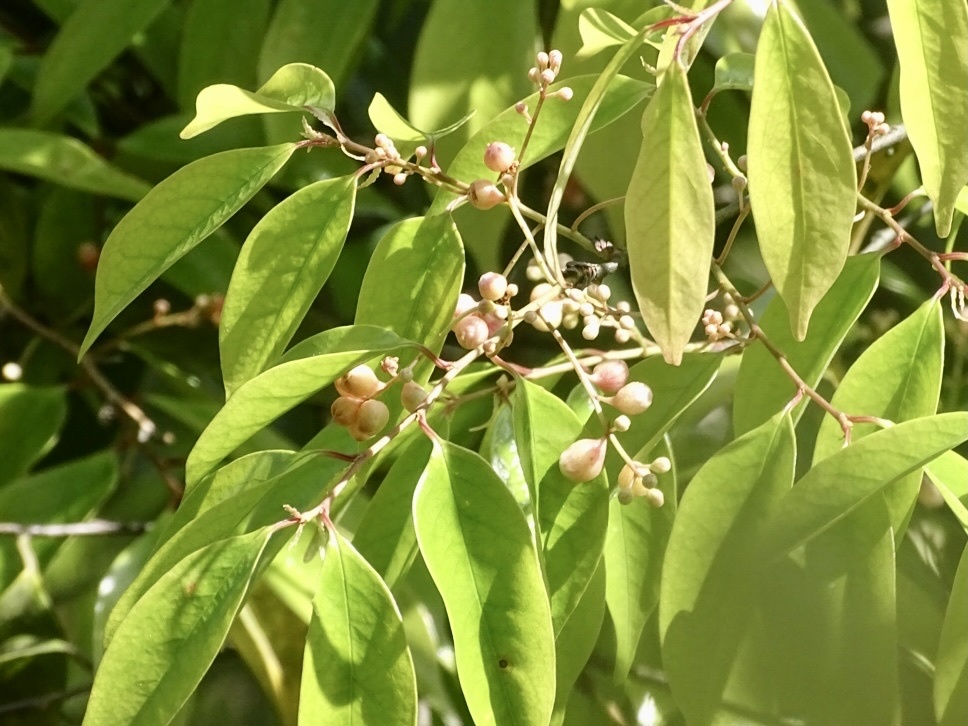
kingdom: Plantae
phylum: Tracheophyta
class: Magnoliopsida
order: Rosales
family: Rosaceae
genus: Prunus
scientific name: Prunus phaeosticta
